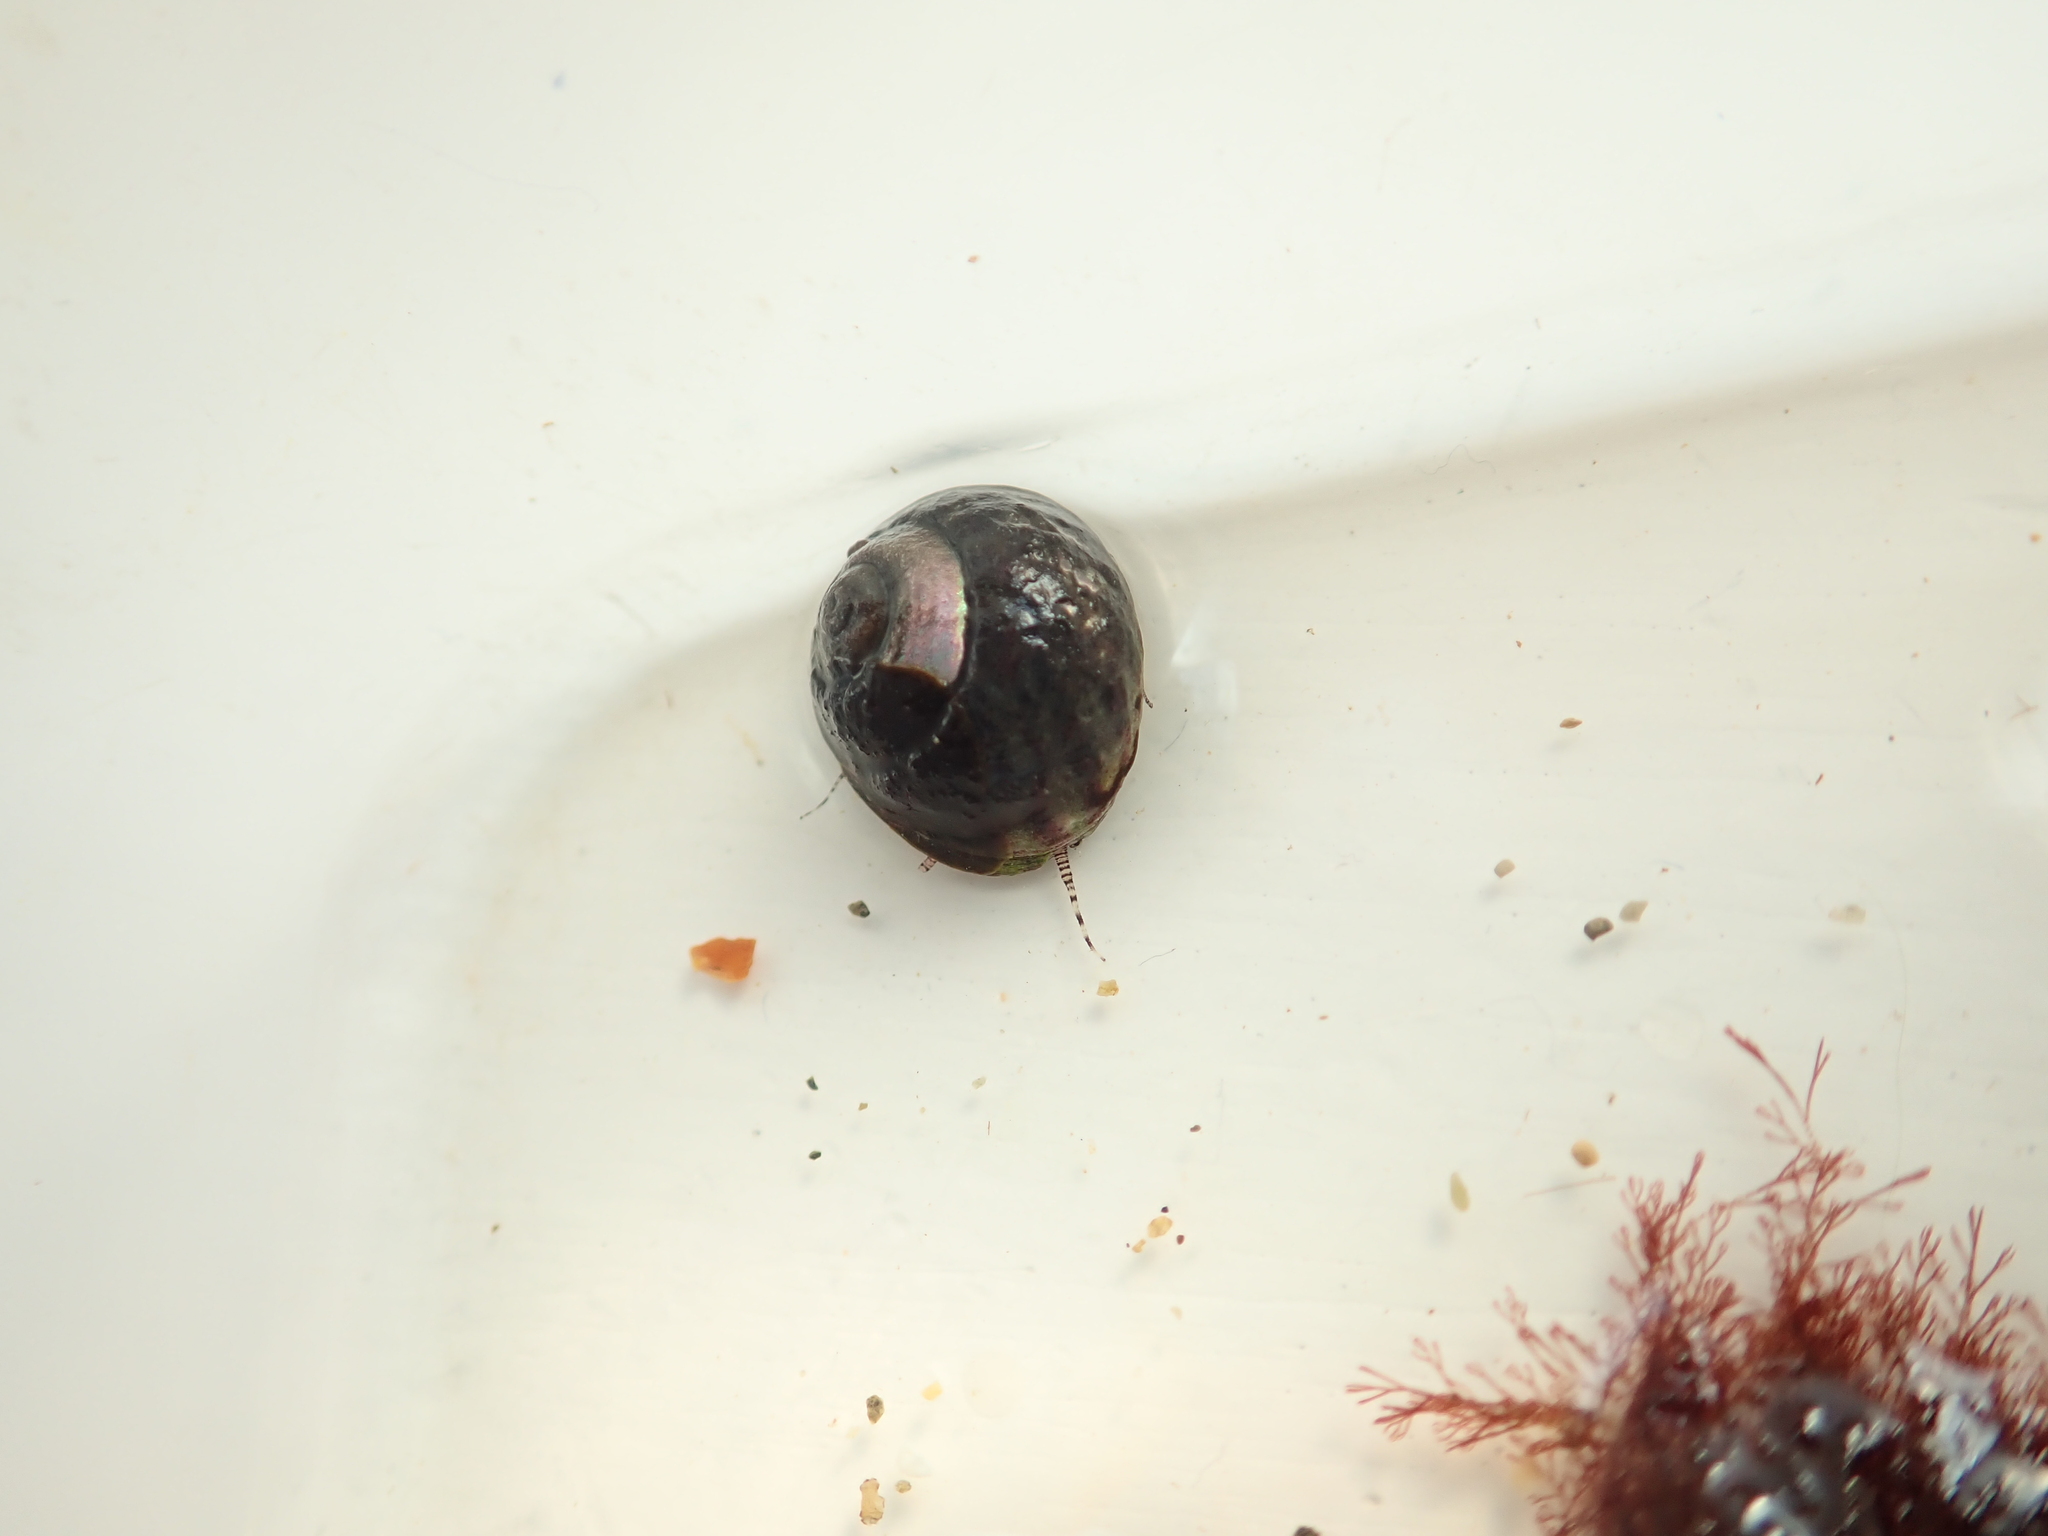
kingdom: Animalia
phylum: Mollusca
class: Gastropoda
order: Trochida
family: Trochidae
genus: Steromphala
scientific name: Steromphala umbilicalis
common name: Flat top shell
